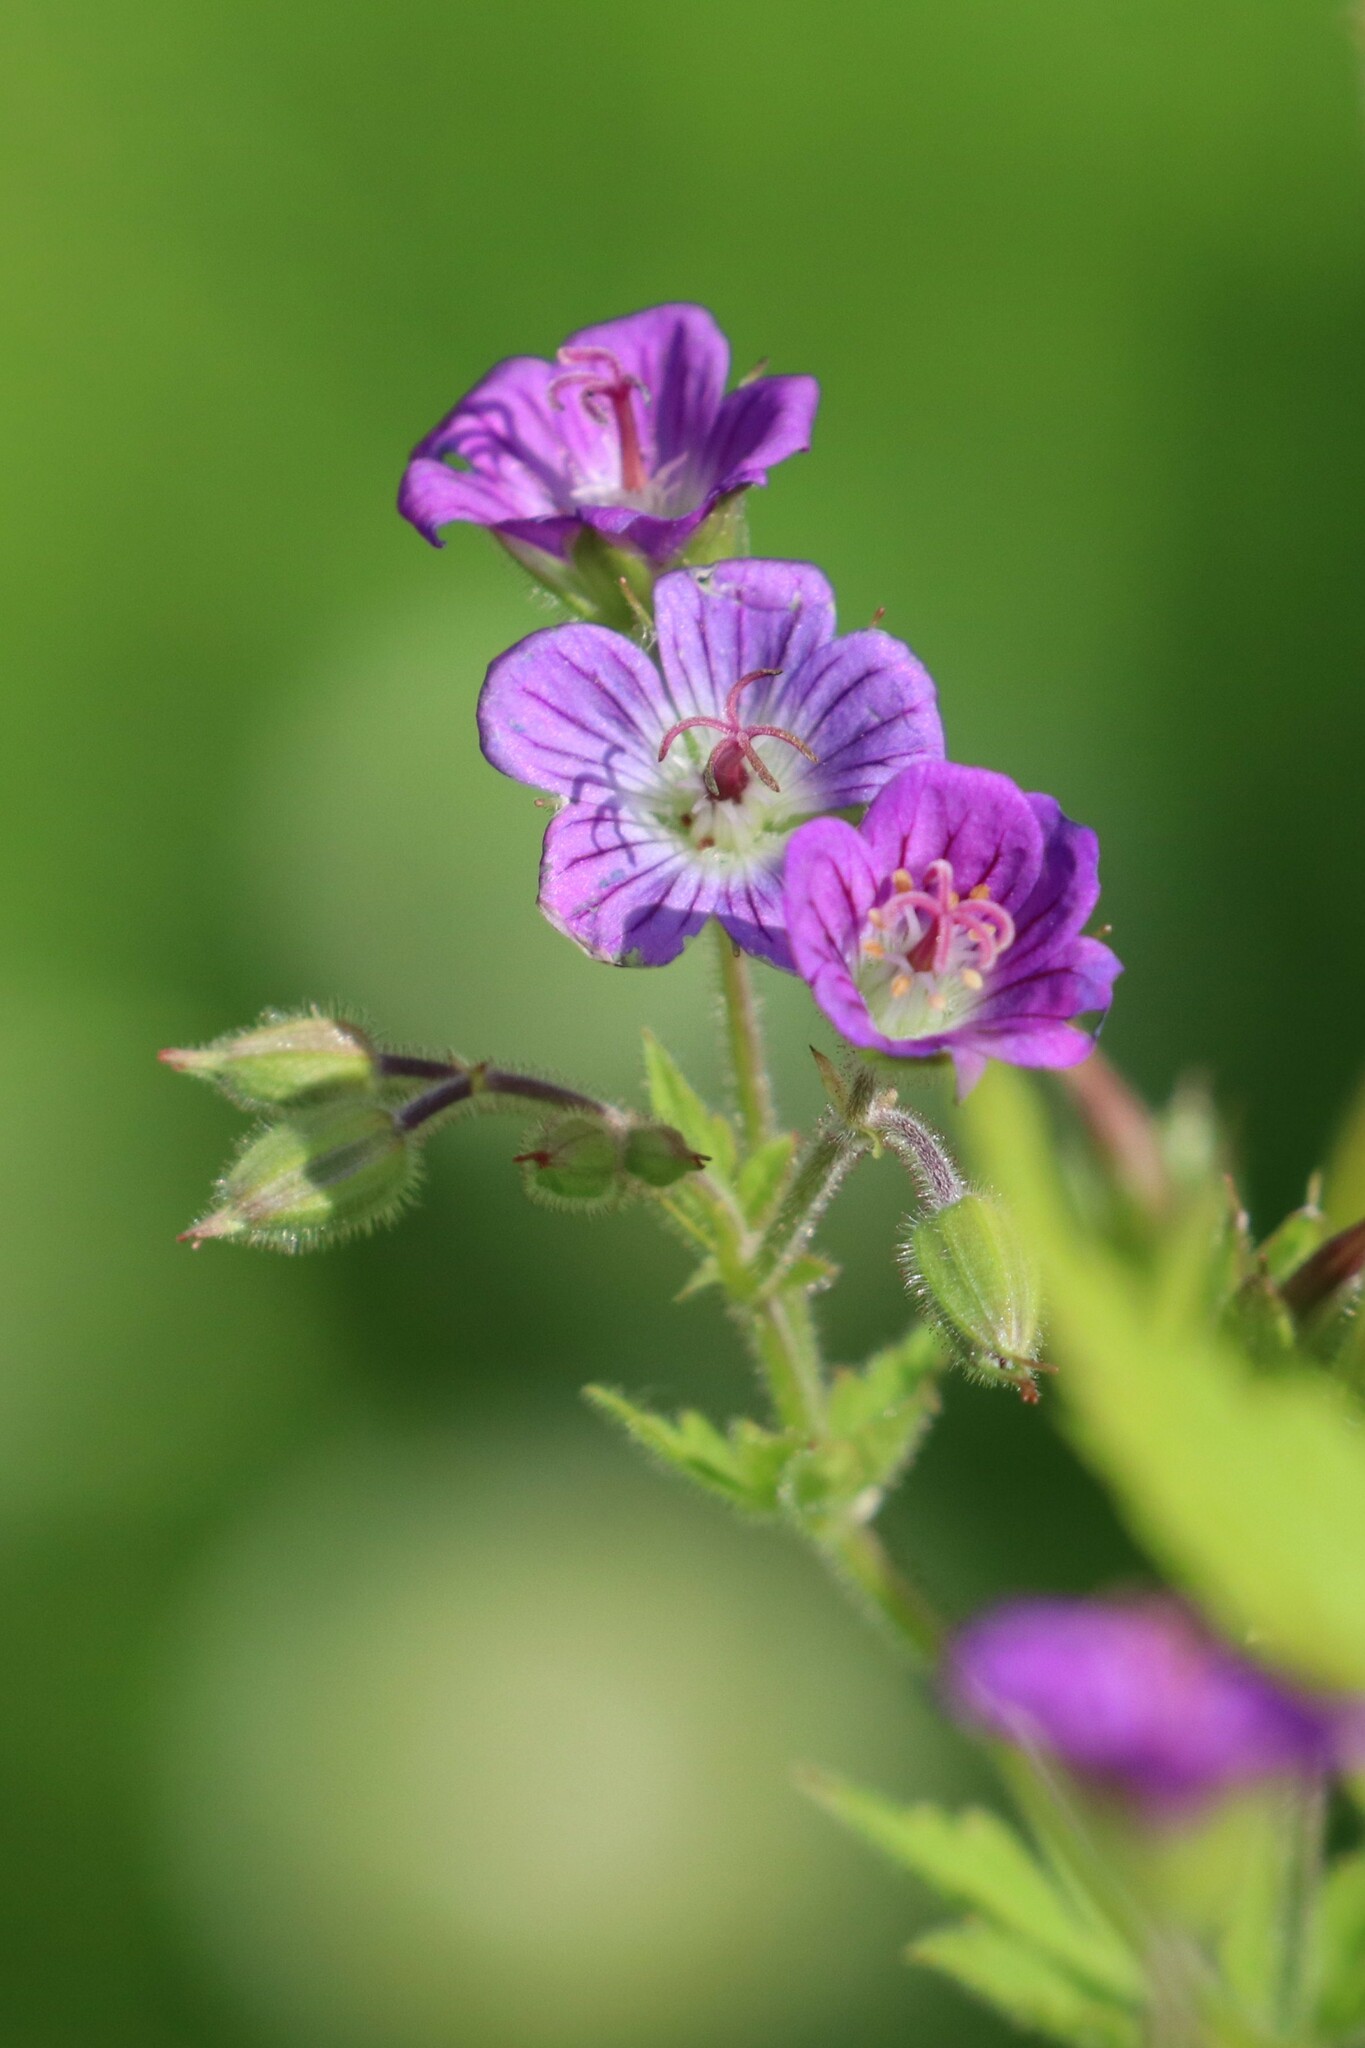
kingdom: Plantae
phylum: Tracheophyta
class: Magnoliopsida
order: Geraniales
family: Geraniaceae
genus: Geranium
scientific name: Geranium sylvaticum
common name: Wood crane's-bill
